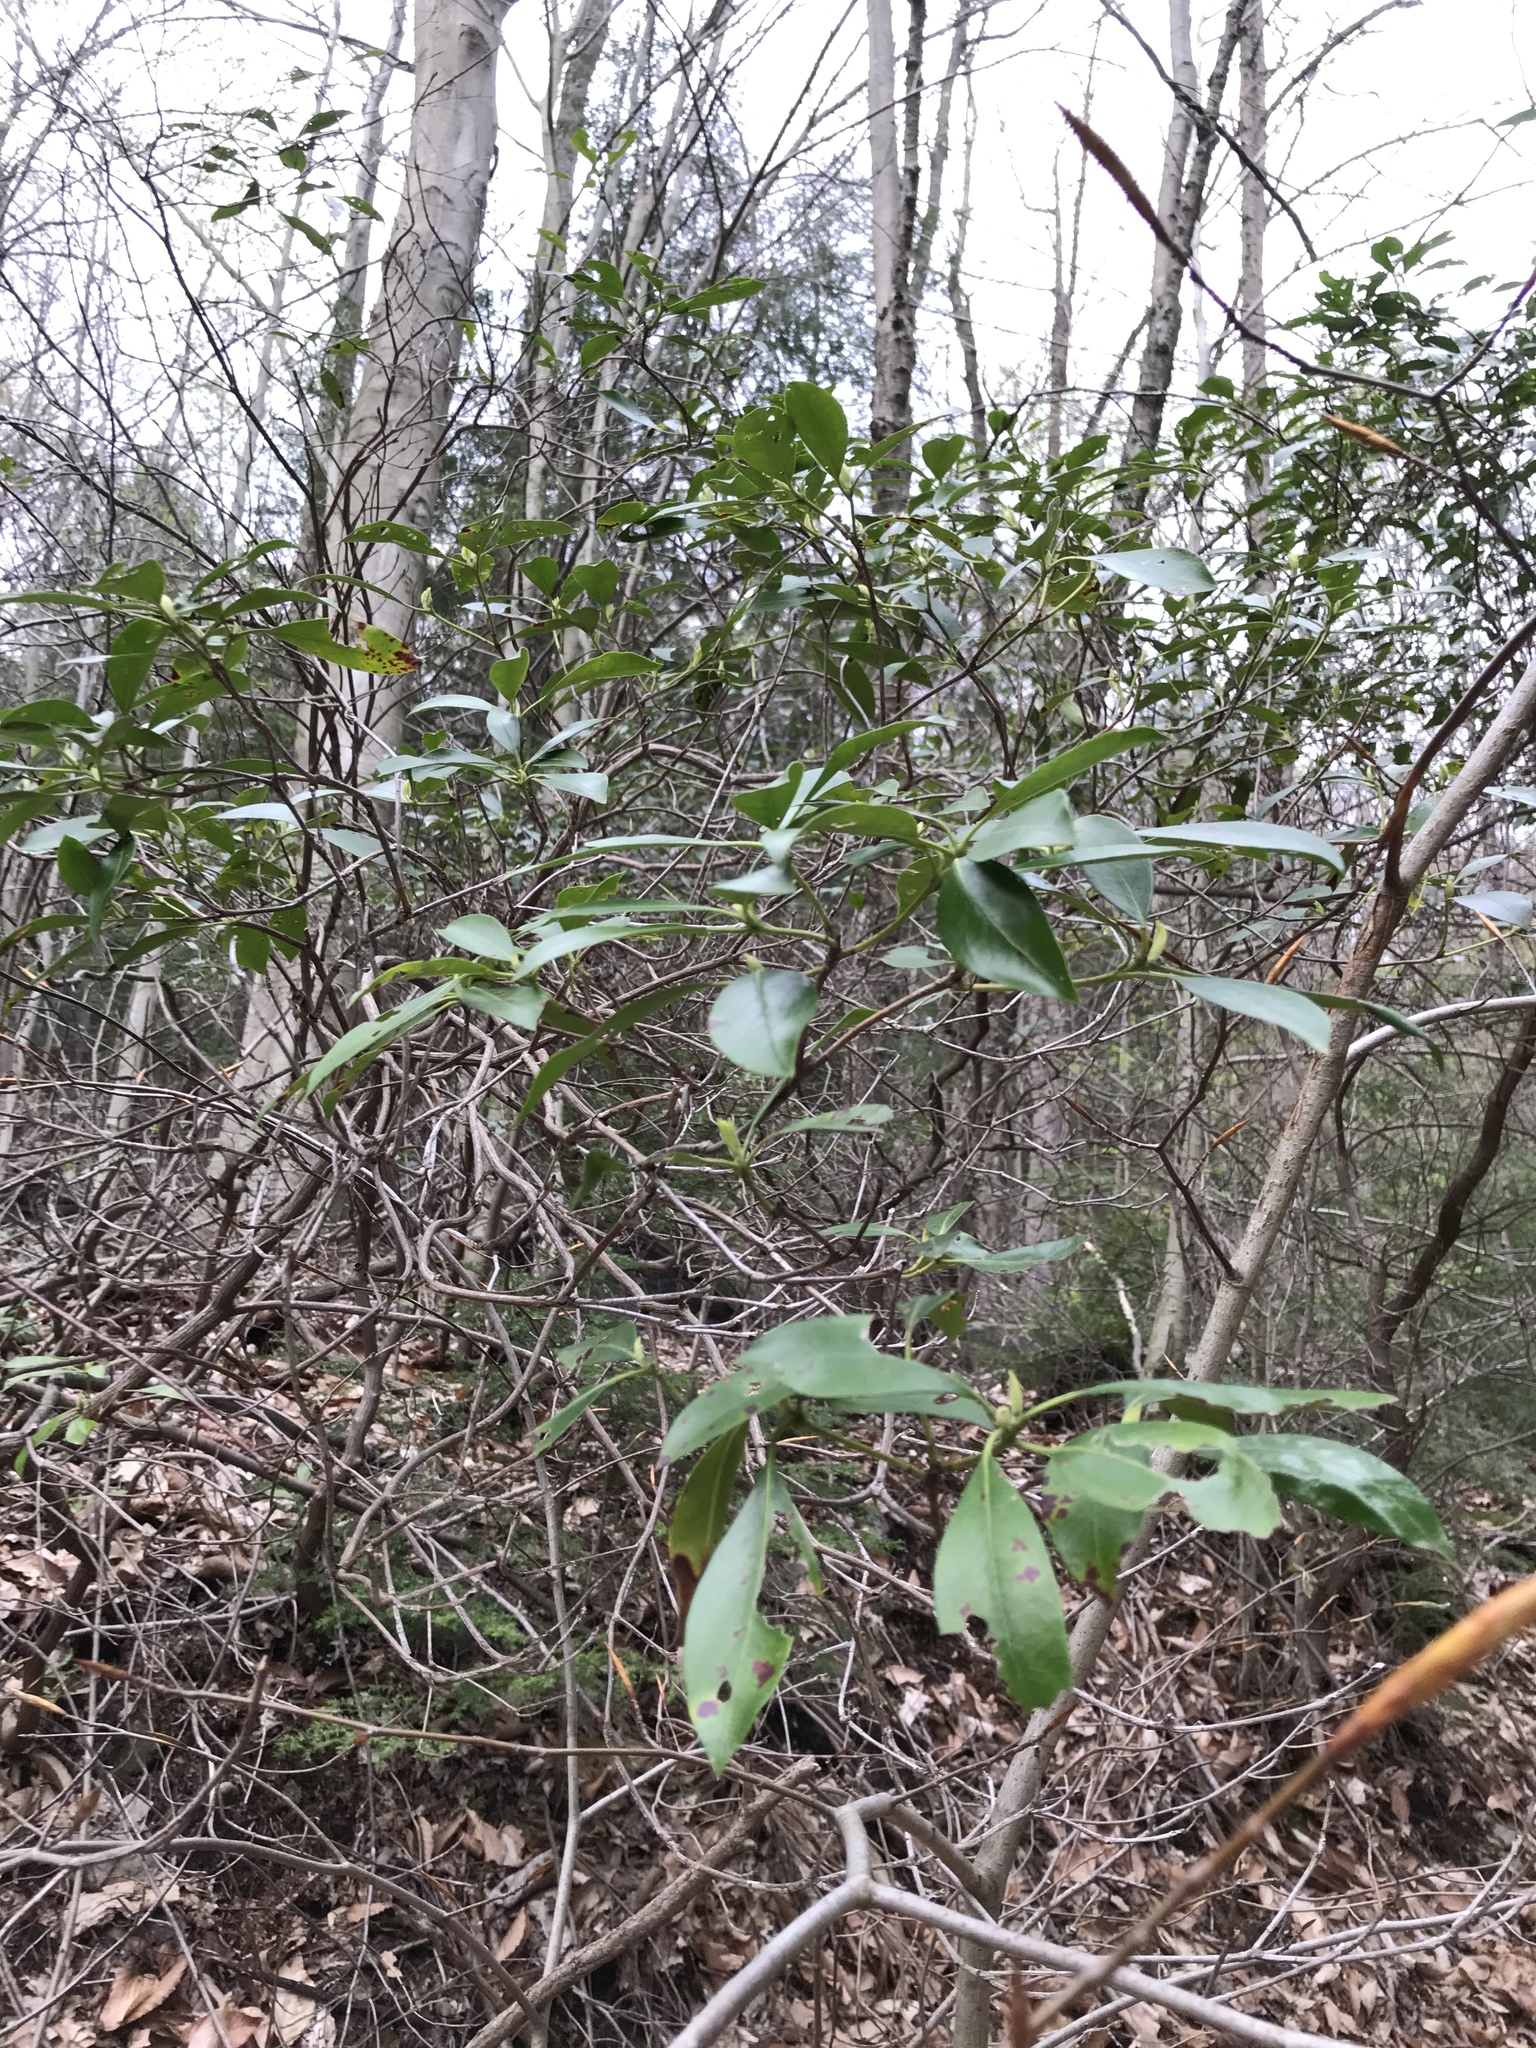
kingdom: Plantae
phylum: Tracheophyta
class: Magnoliopsida
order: Ericales
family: Ericaceae
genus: Kalmia
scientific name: Kalmia latifolia
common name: Mountain-laurel
